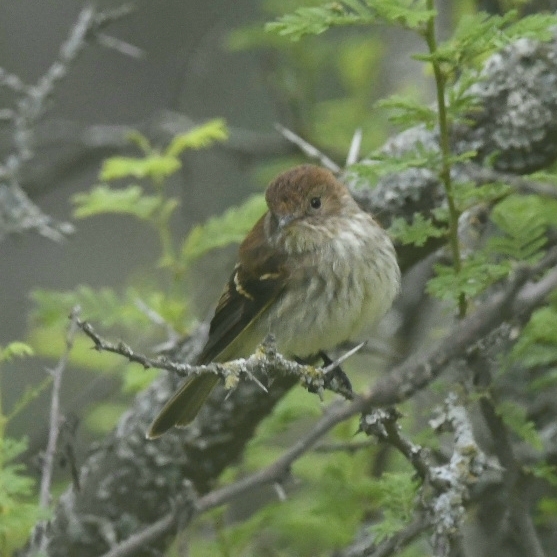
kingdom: Animalia
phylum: Chordata
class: Aves
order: Passeriformes
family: Tyrannidae
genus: Myiophobus
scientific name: Myiophobus fasciatus
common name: Bran-colored flycatcher
